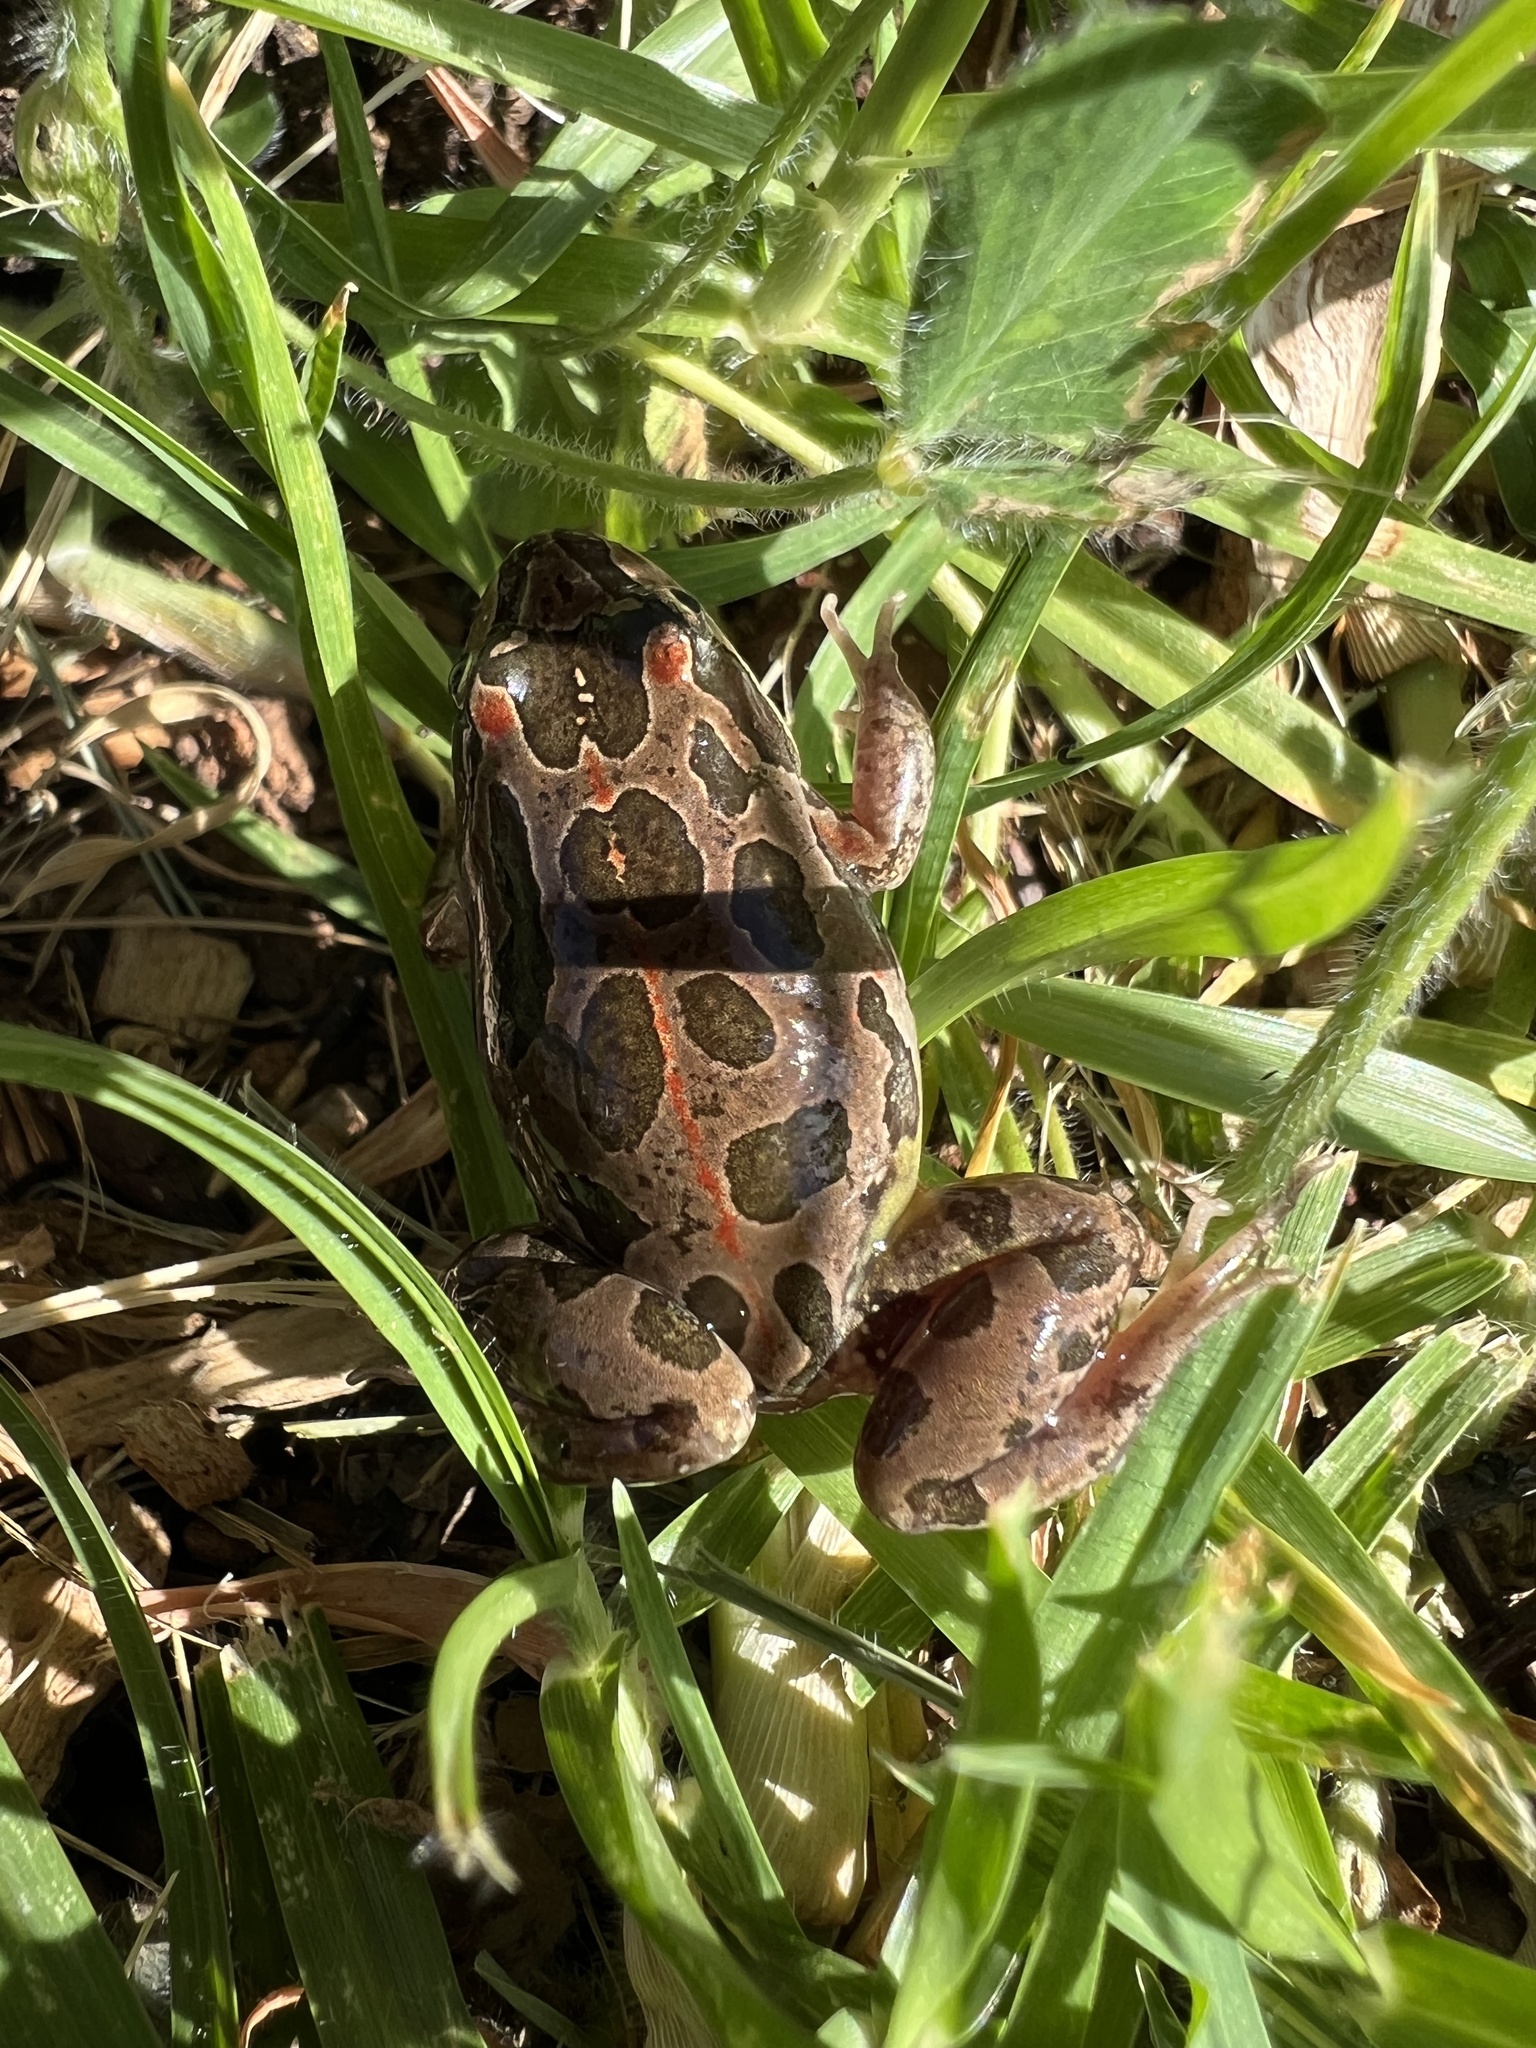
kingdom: Animalia
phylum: Chordata
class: Amphibia
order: Anura
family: Limnodynastidae
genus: Limnodynastes
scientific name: Limnodynastes tasmaniensis
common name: Spotted marsh frog
